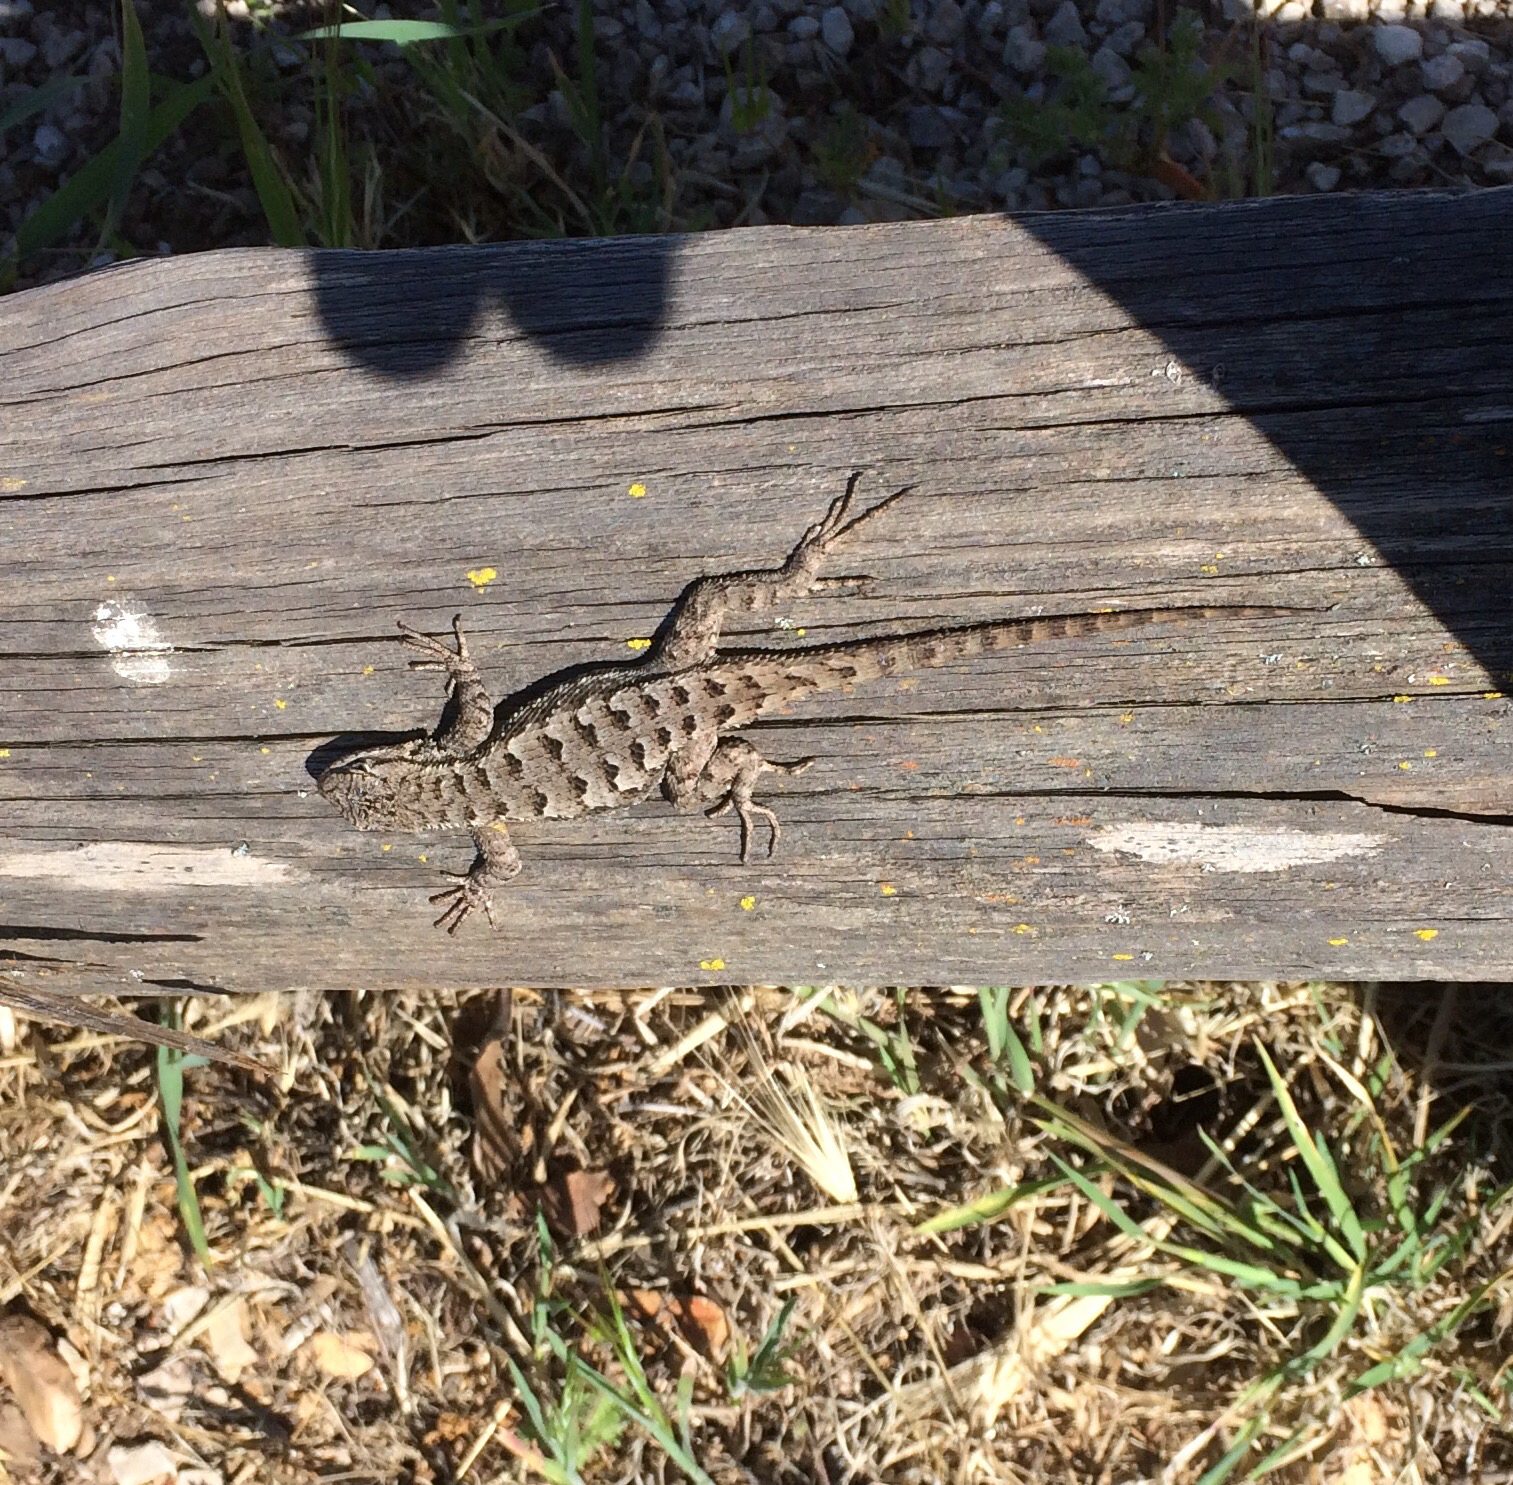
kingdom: Animalia
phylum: Chordata
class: Squamata
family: Phrynosomatidae
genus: Sceloporus
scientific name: Sceloporus occidentalis
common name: Western fence lizard
